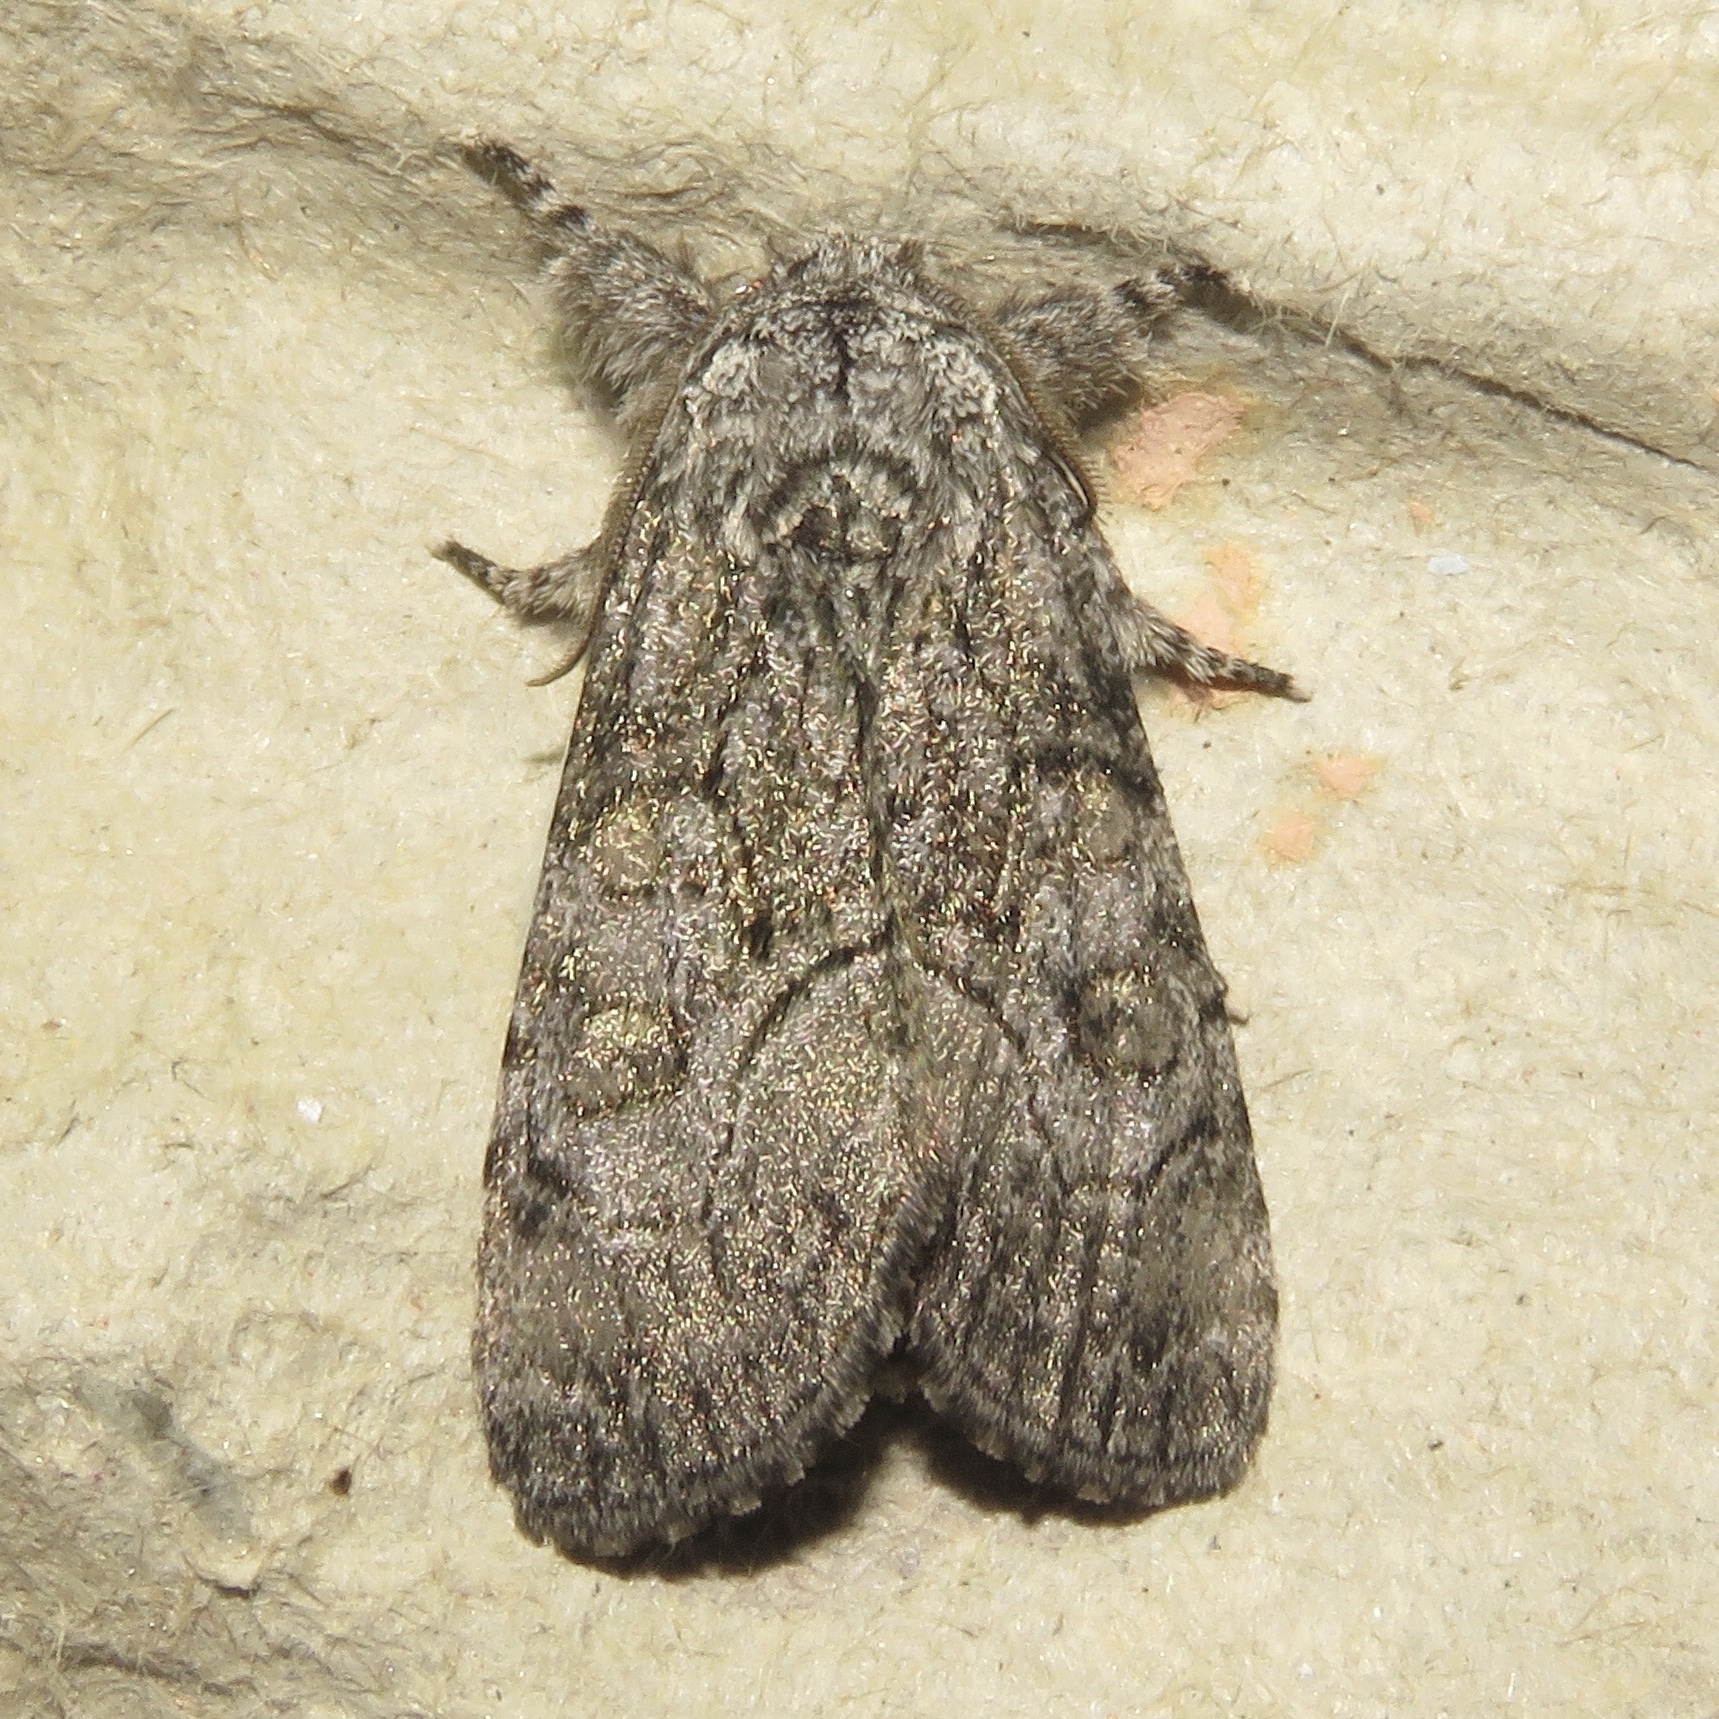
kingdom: Animalia
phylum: Arthropoda
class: Insecta
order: Lepidoptera
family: Noctuidae
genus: Raphia
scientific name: Raphia frater
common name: Brother
